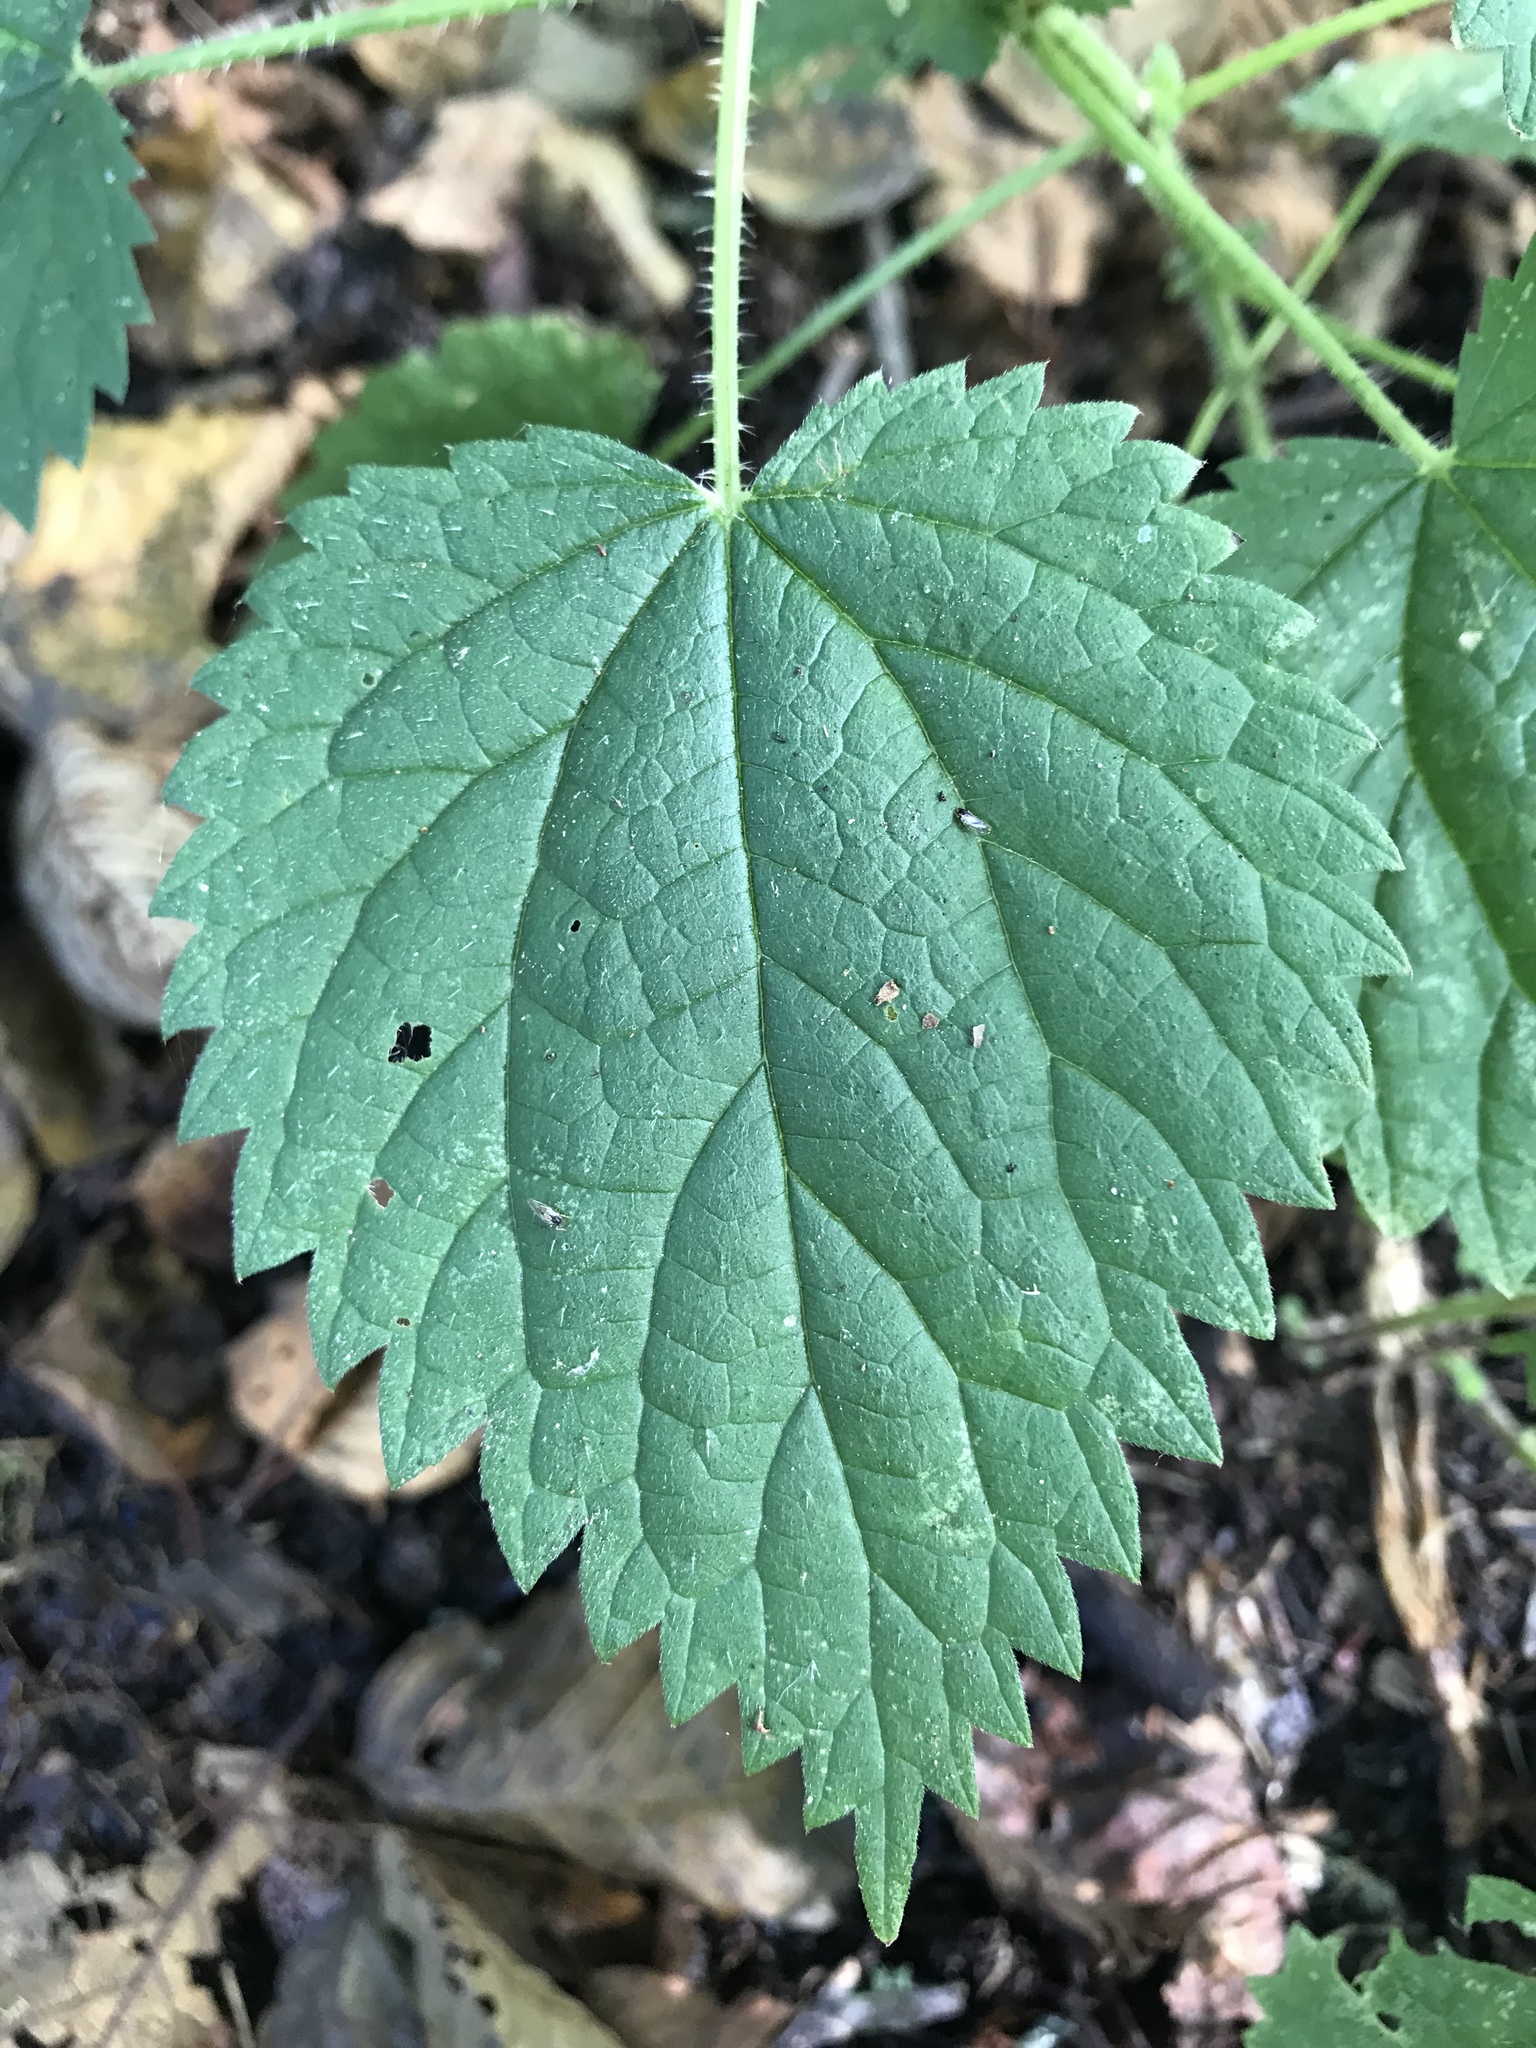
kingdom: Plantae
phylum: Tracheophyta
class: Magnoliopsida
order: Rosales
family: Urticaceae
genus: Urtica
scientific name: Urtica dioica
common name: Common nettle
